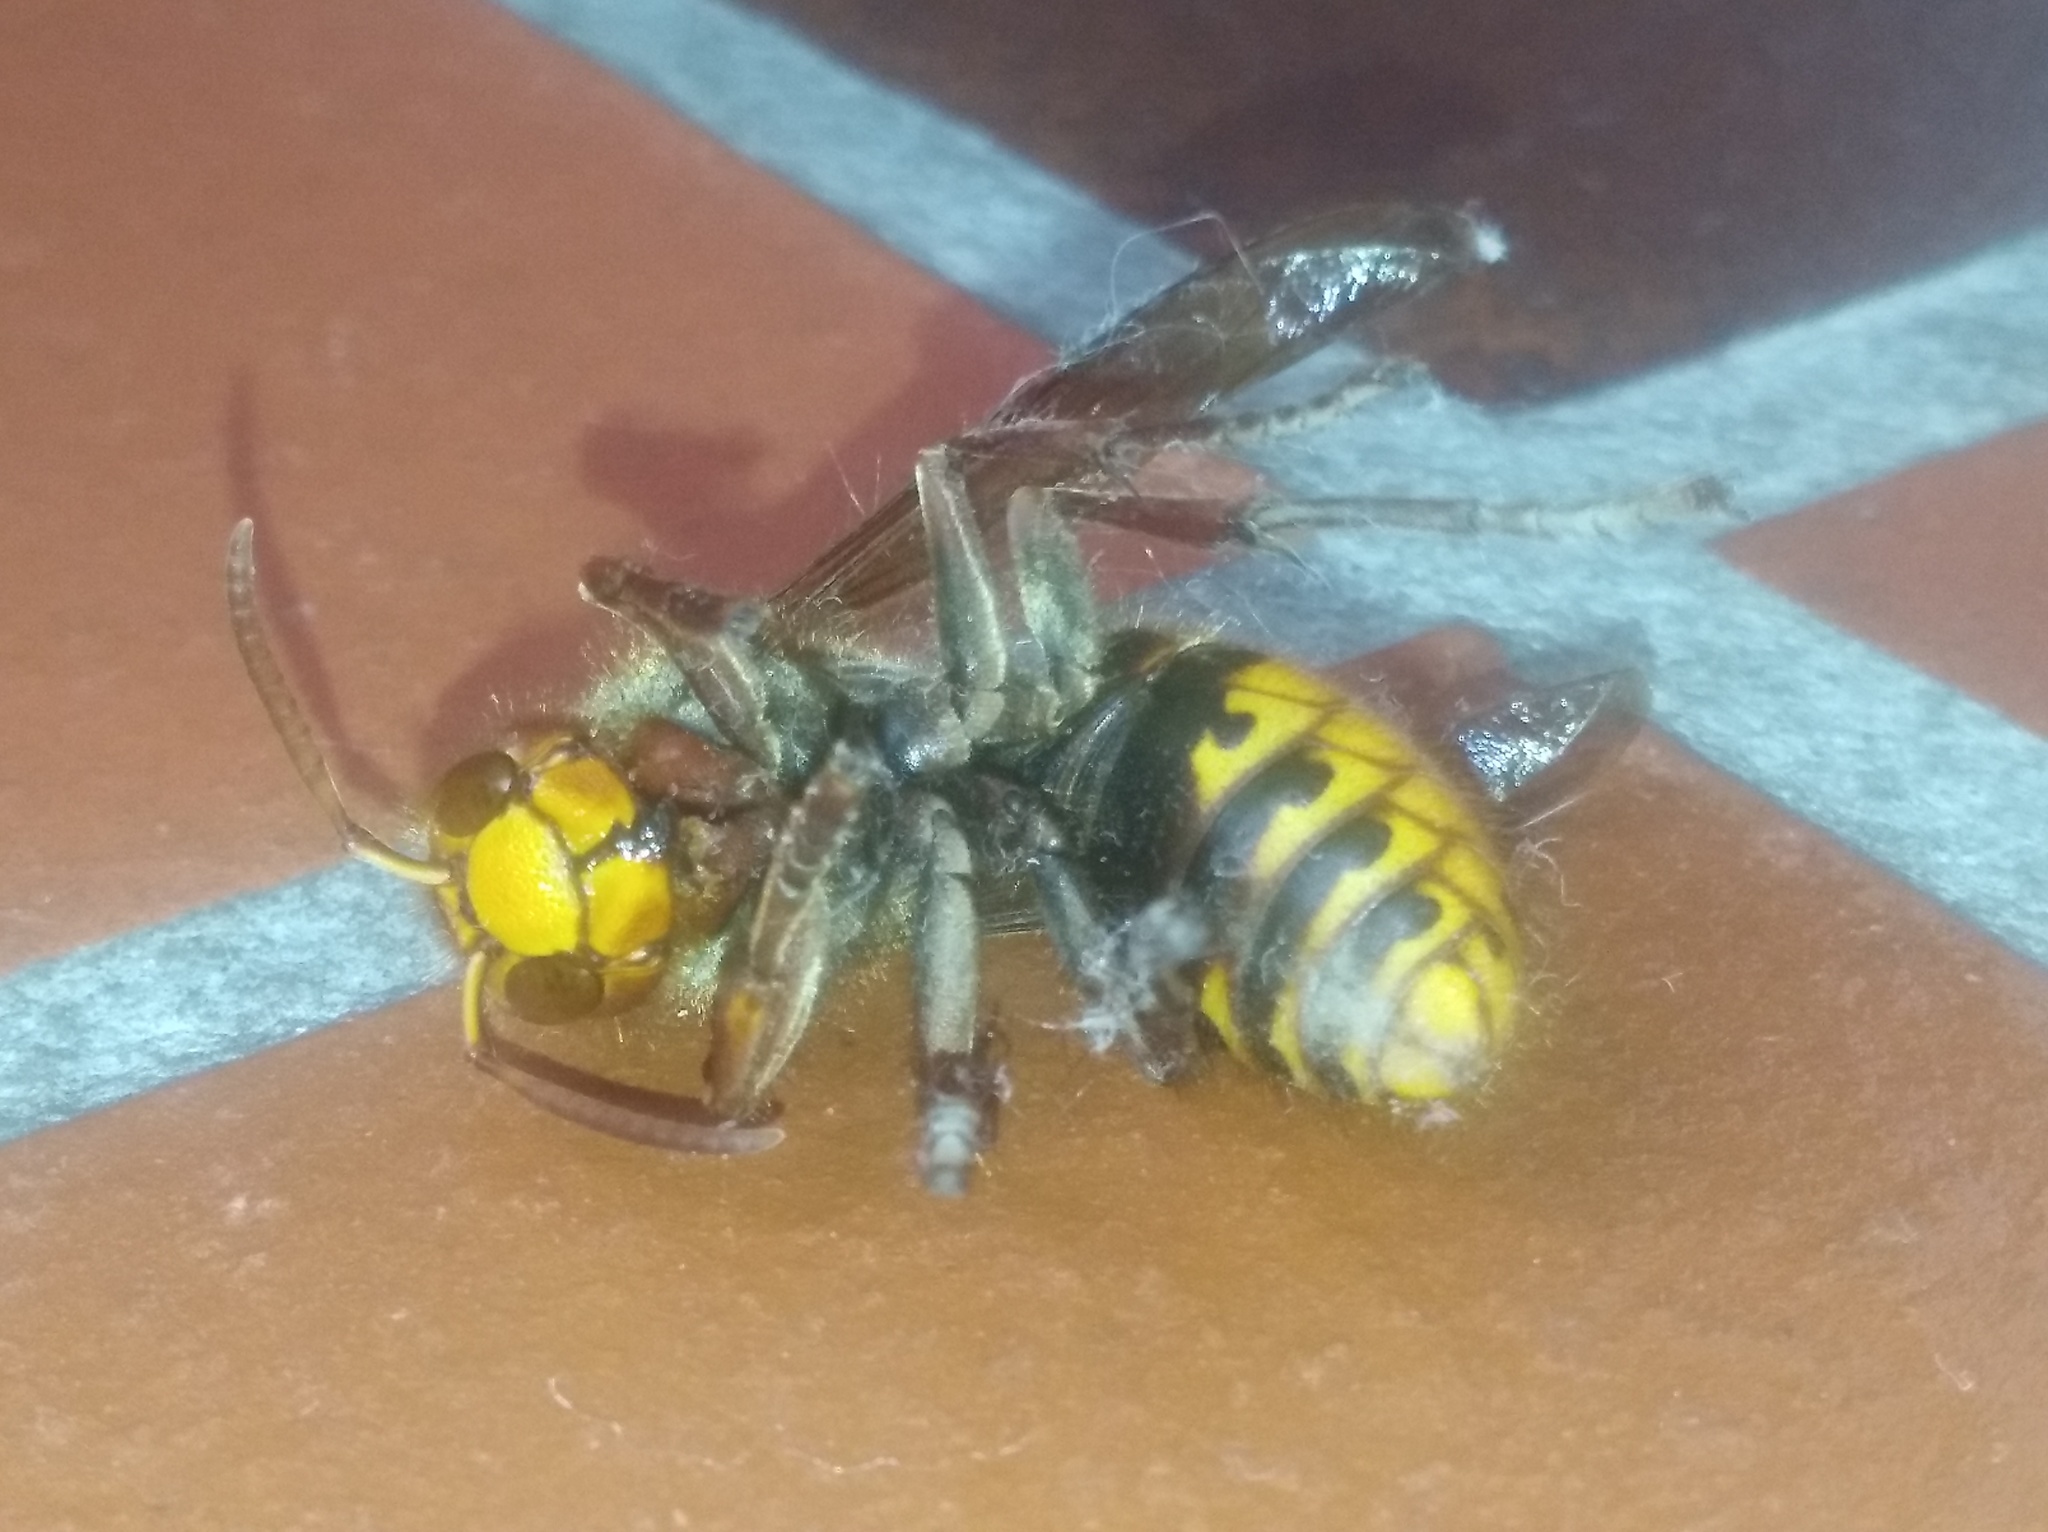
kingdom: Animalia
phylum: Arthropoda
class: Insecta
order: Hymenoptera
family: Vespidae
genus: Vespa
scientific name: Vespa crabro
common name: Hornet
